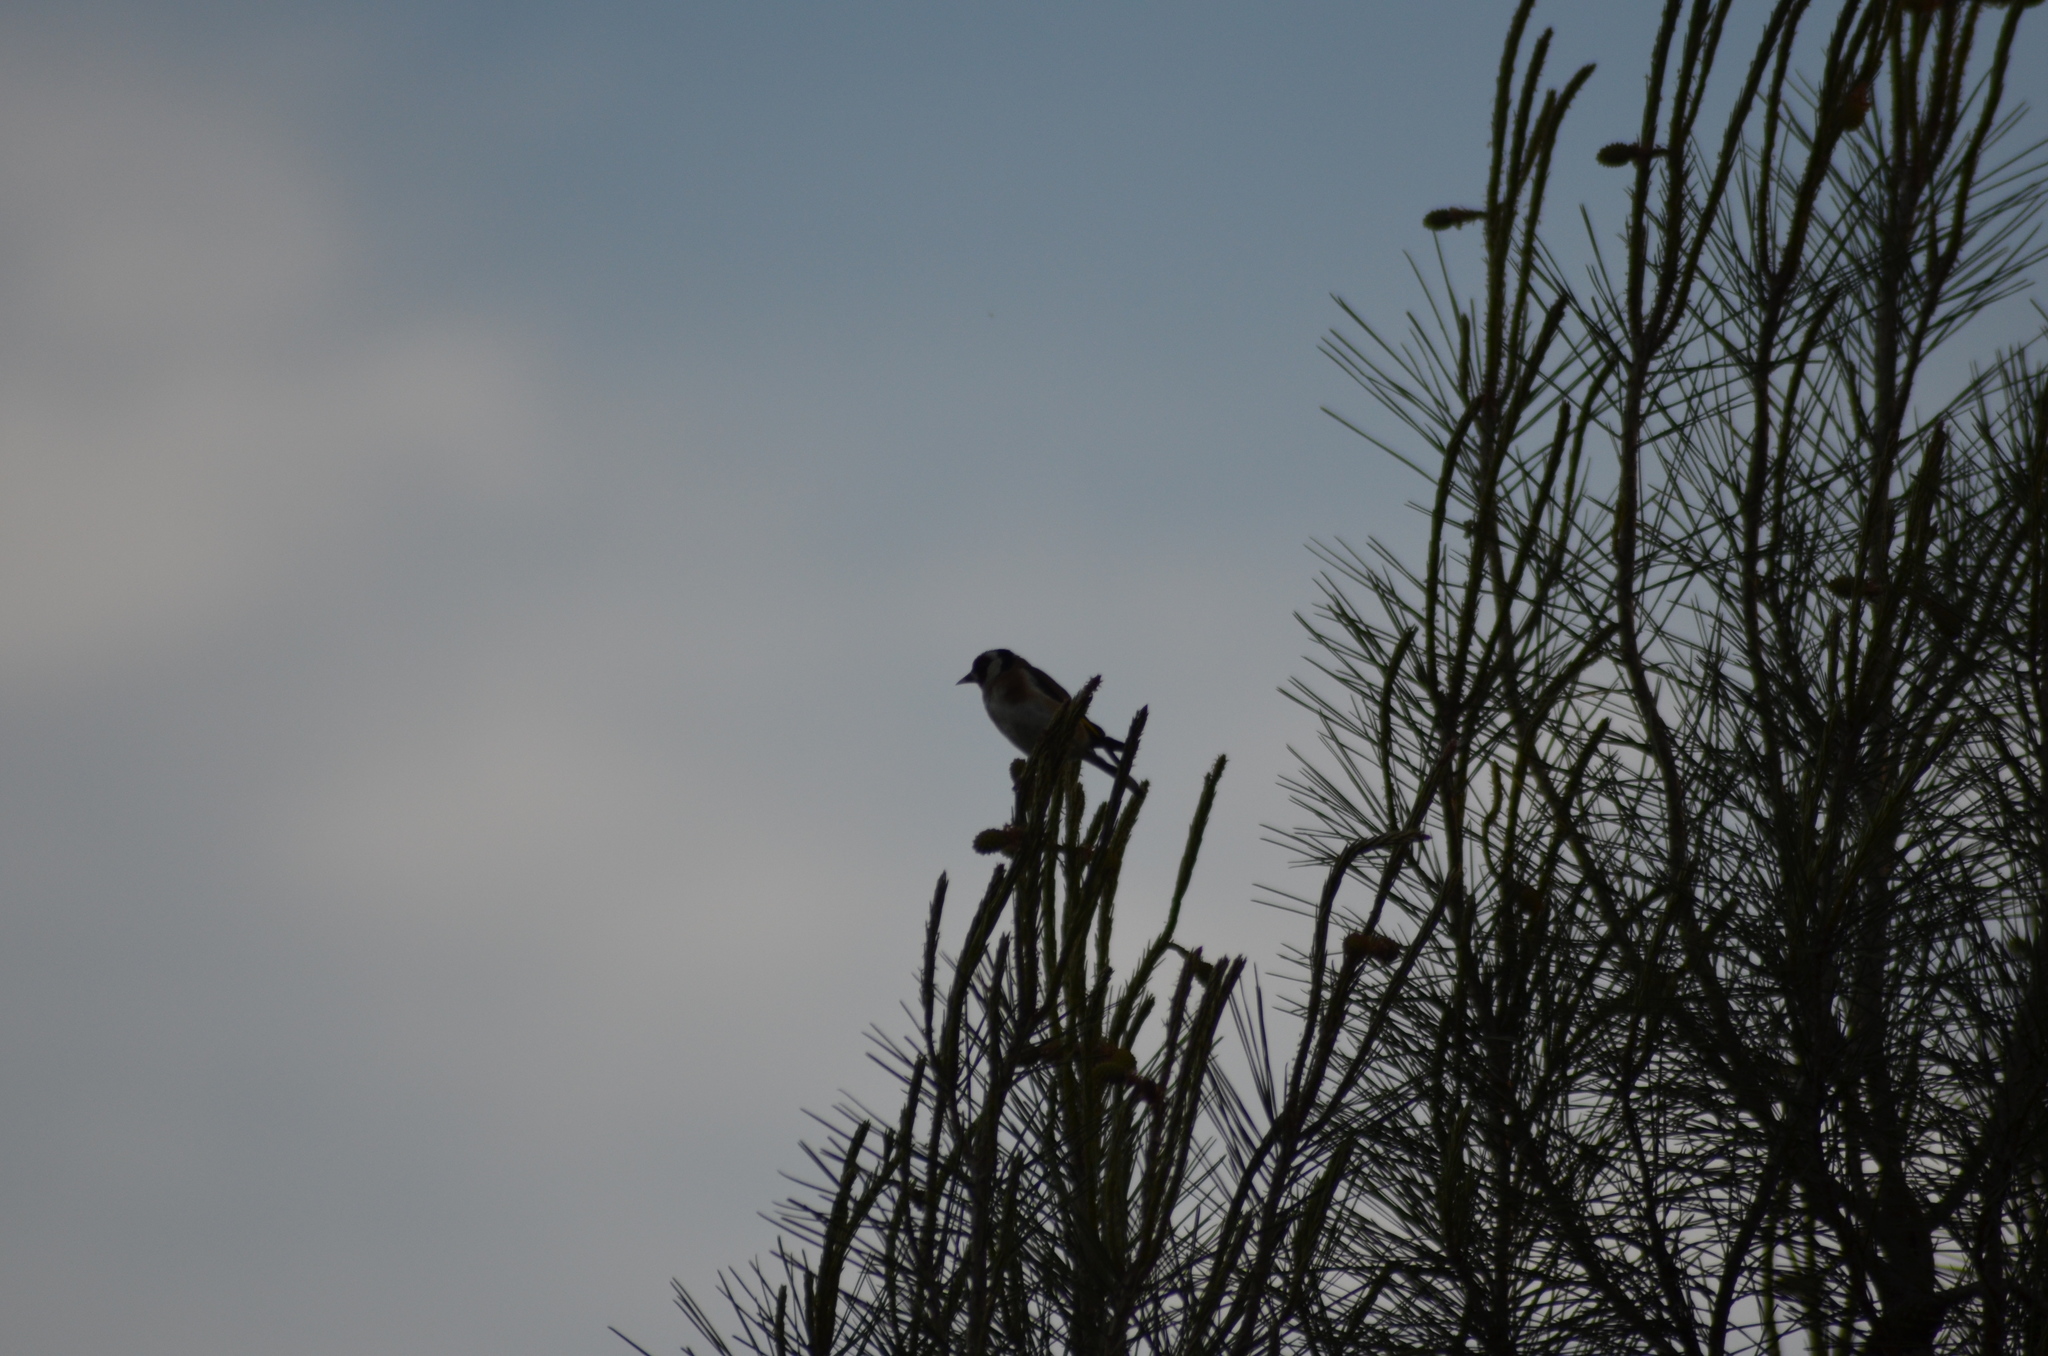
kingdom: Animalia
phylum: Chordata
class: Aves
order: Passeriformes
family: Fringillidae
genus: Carduelis
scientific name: Carduelis carduelis
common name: European goldfinch
